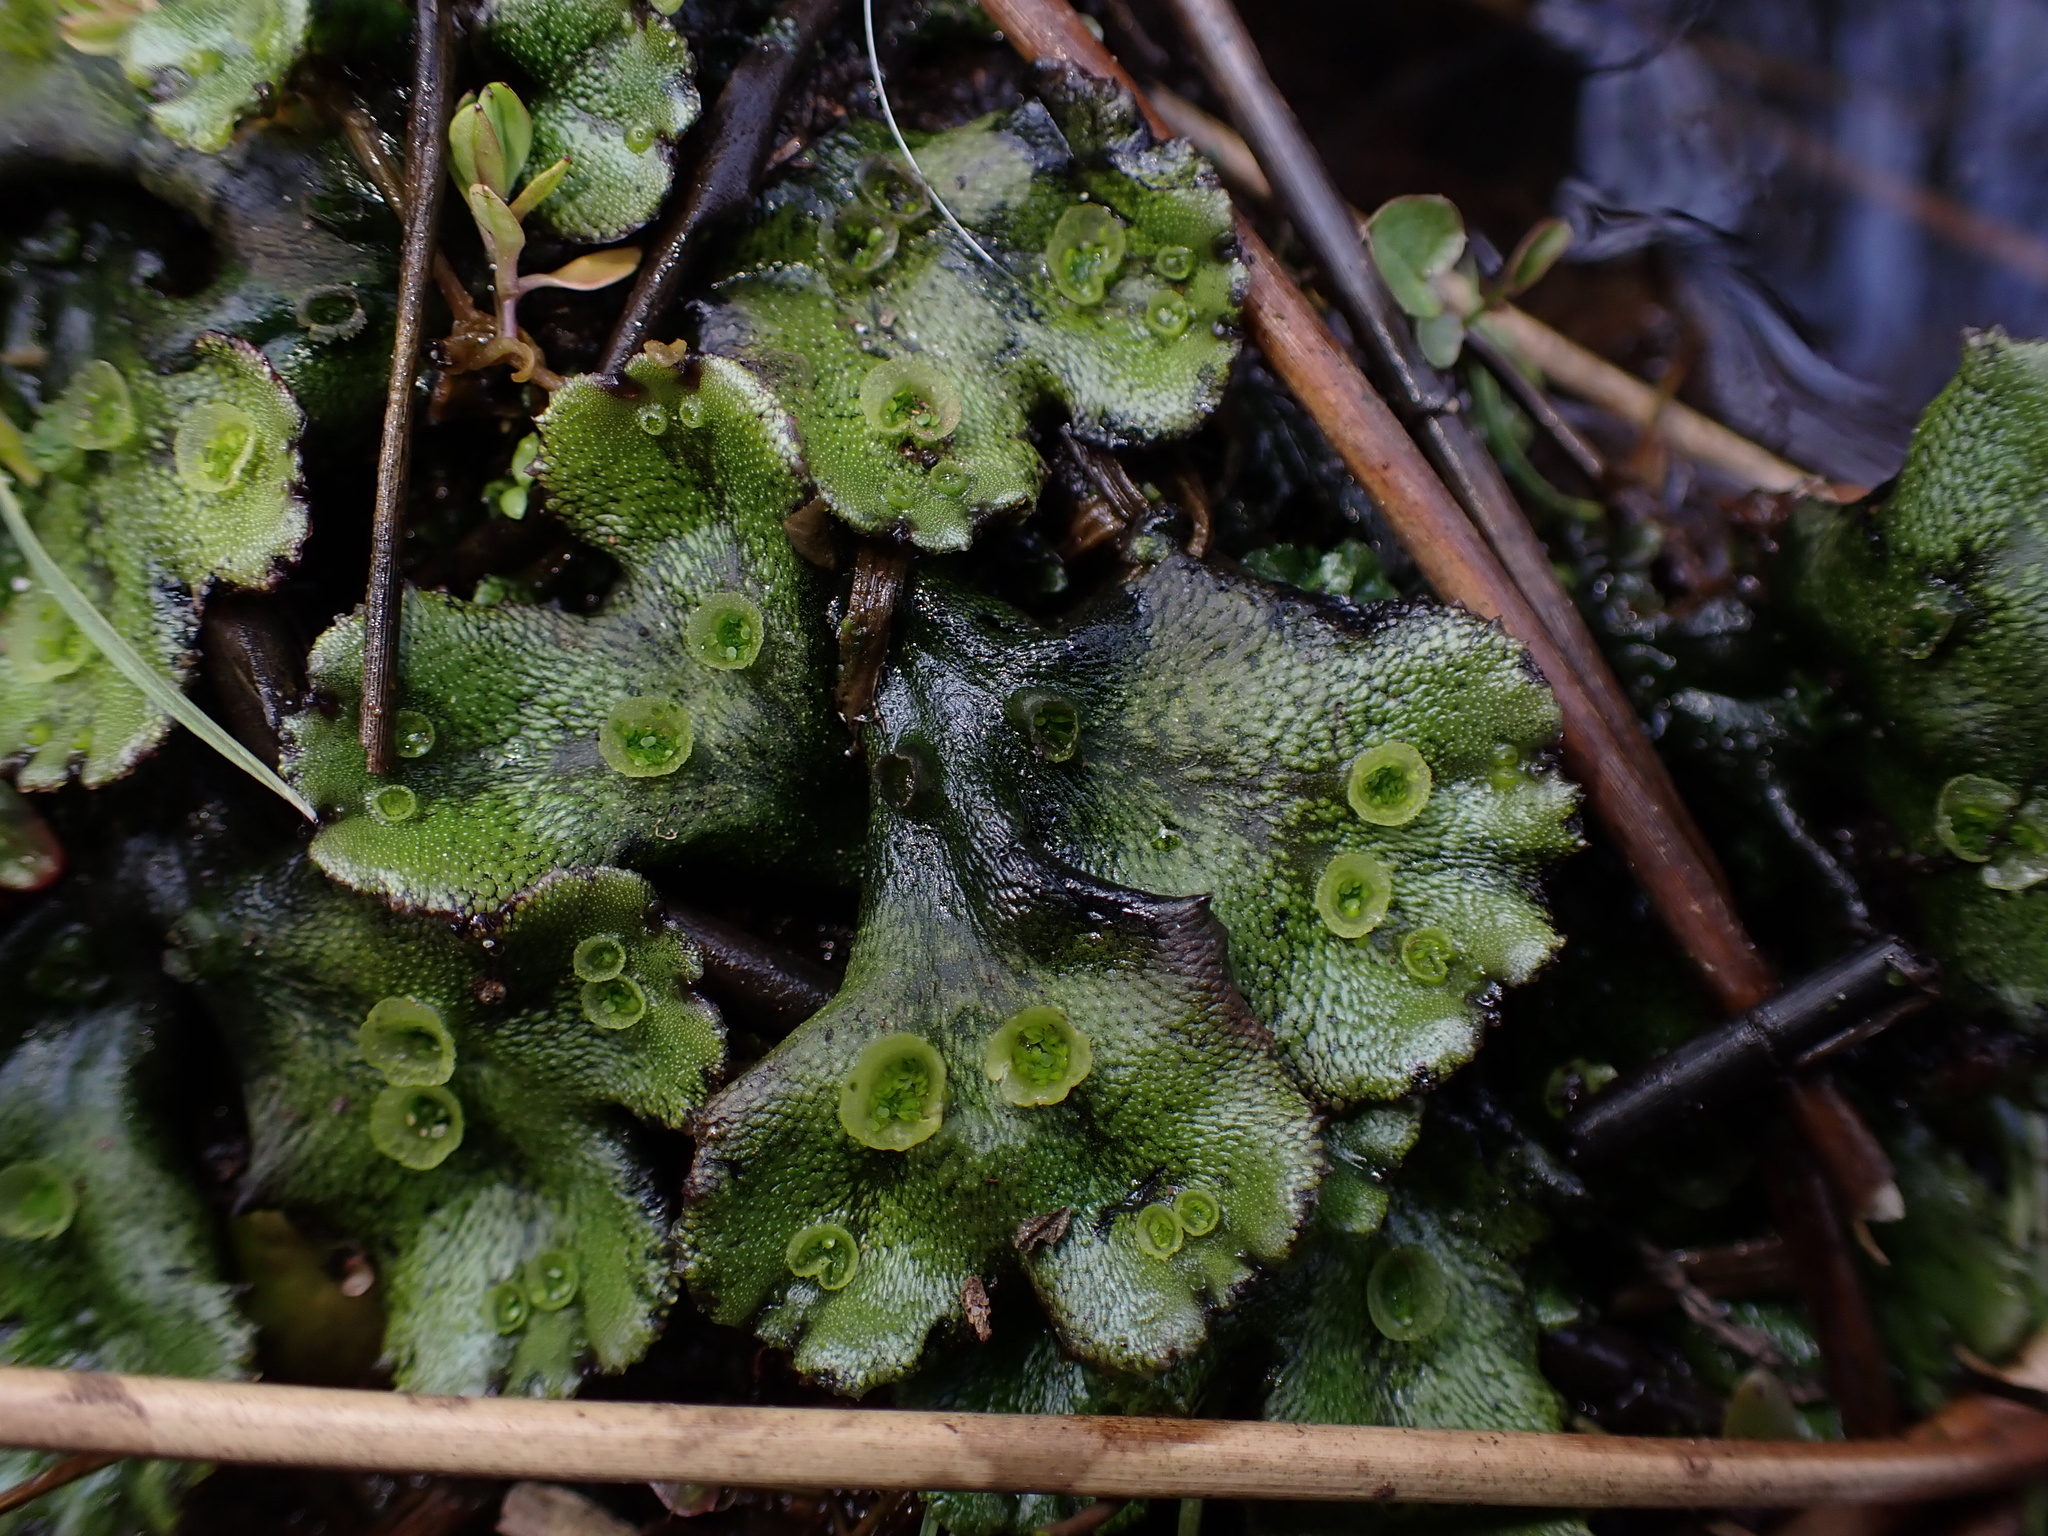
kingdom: Plantae
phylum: Marchantiophyta
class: Marchantiopsida
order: Marchantiales
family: Marchantiaceae
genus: Marchantia
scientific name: Marchantia polymorpha
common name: Common liverwort
